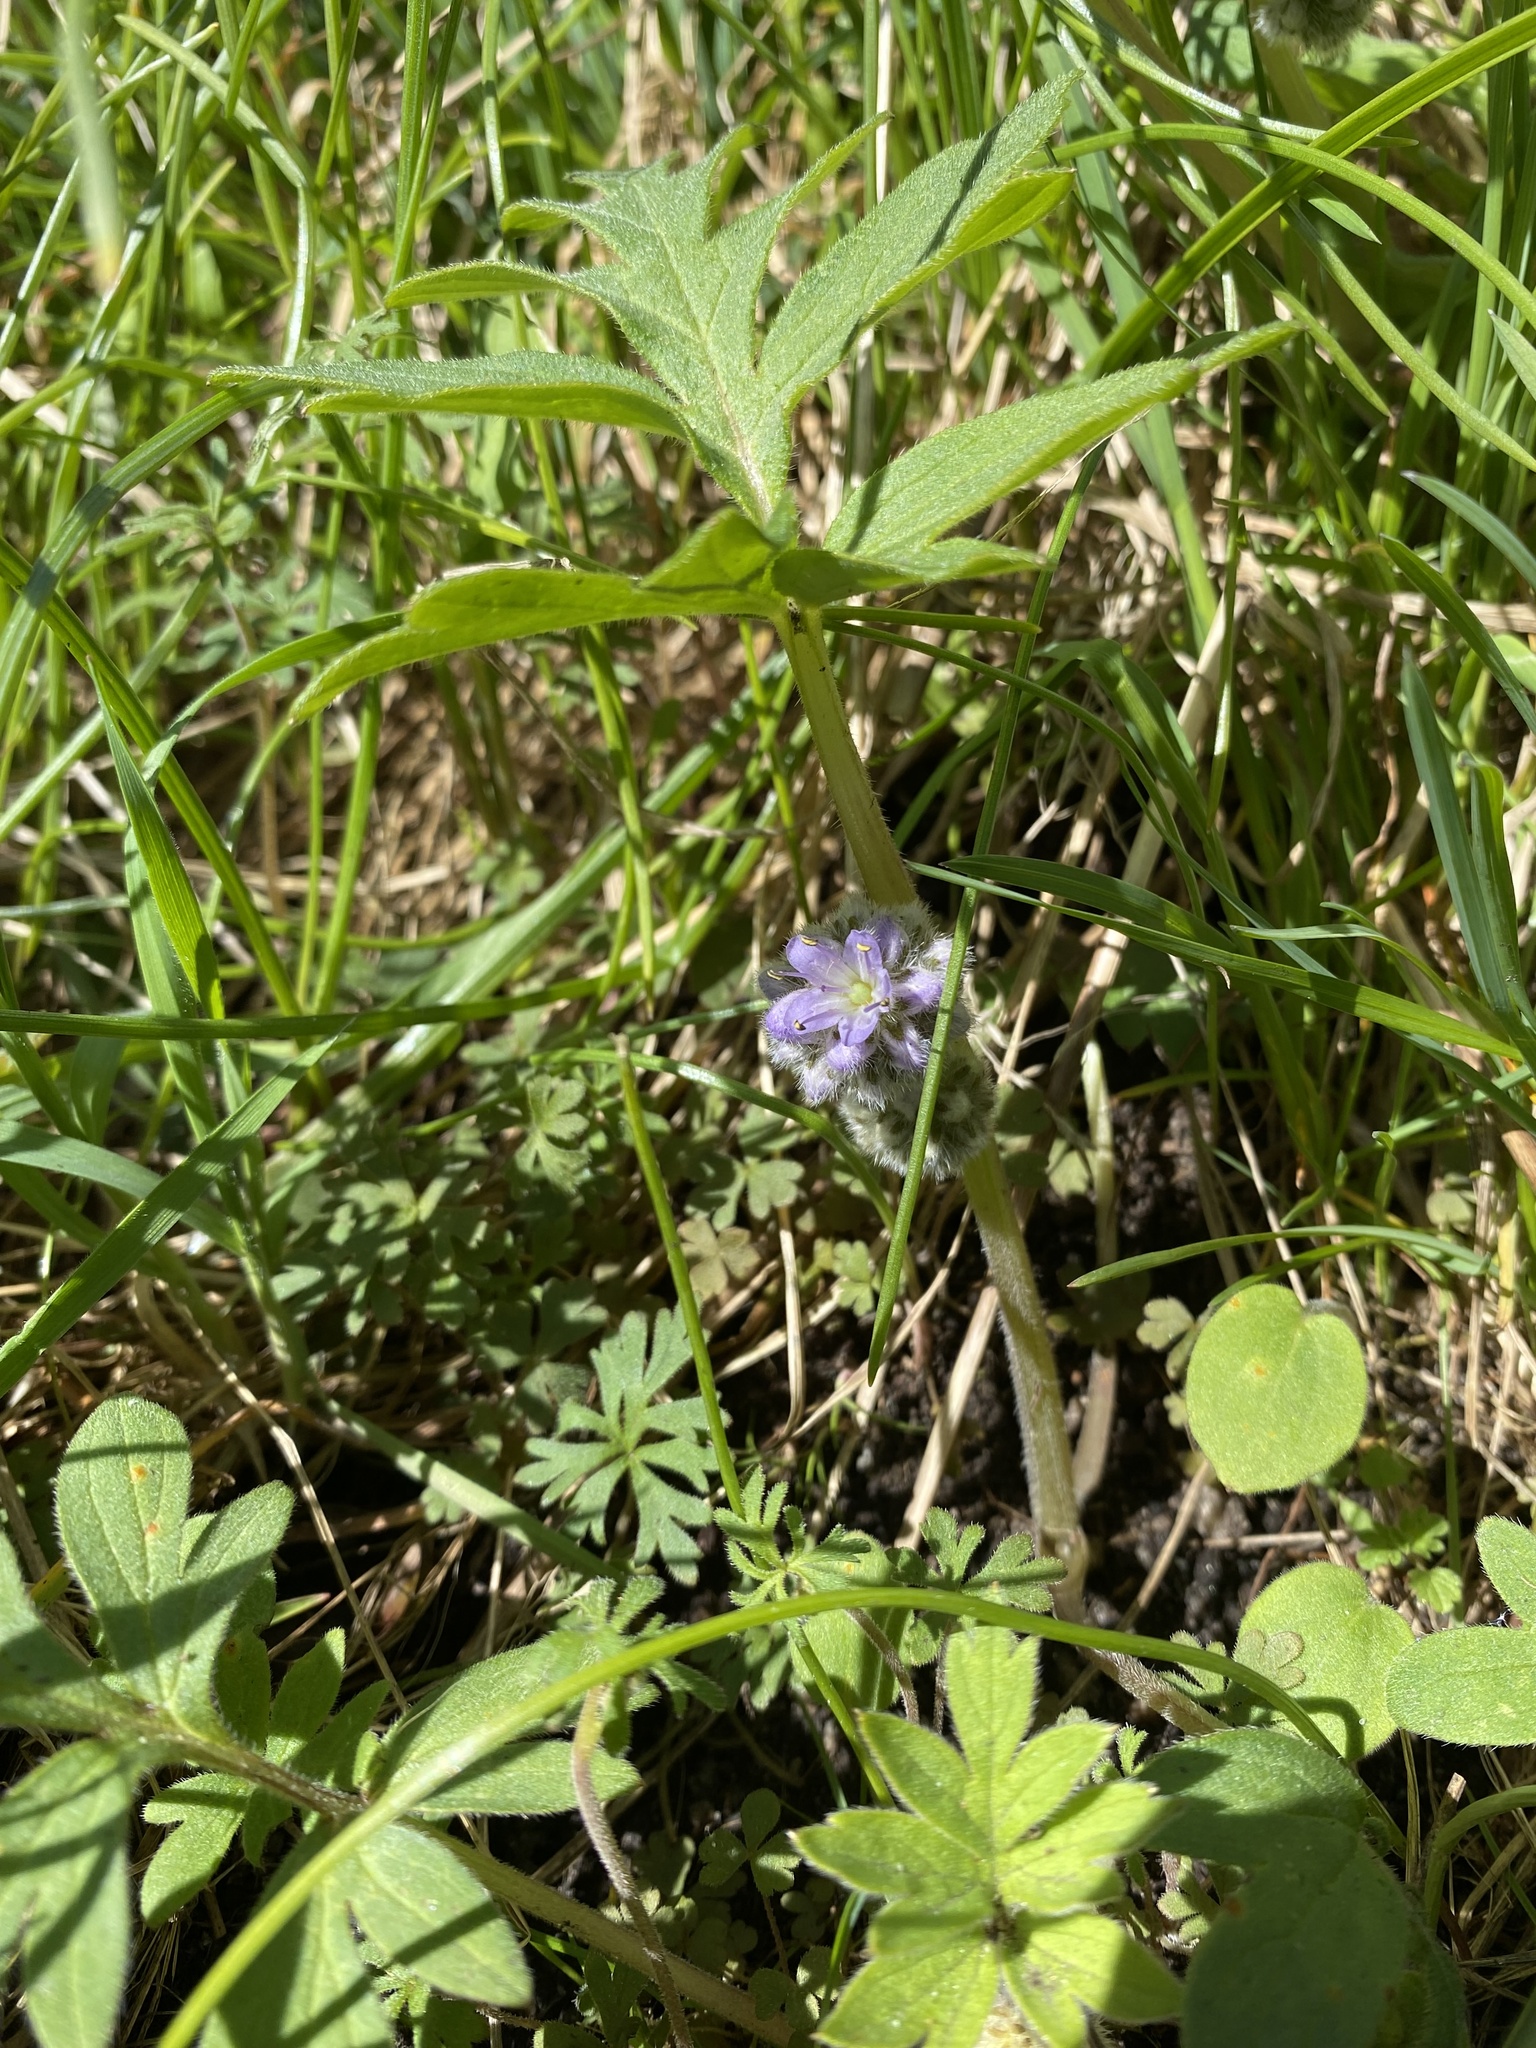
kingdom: Plantae
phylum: Tracheophyta
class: Magnoliopsida
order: Boraginales
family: Hydrophyllaceae
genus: Hydrophyllum
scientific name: Hydrophyllum capitatum
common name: Woollen-breeches
